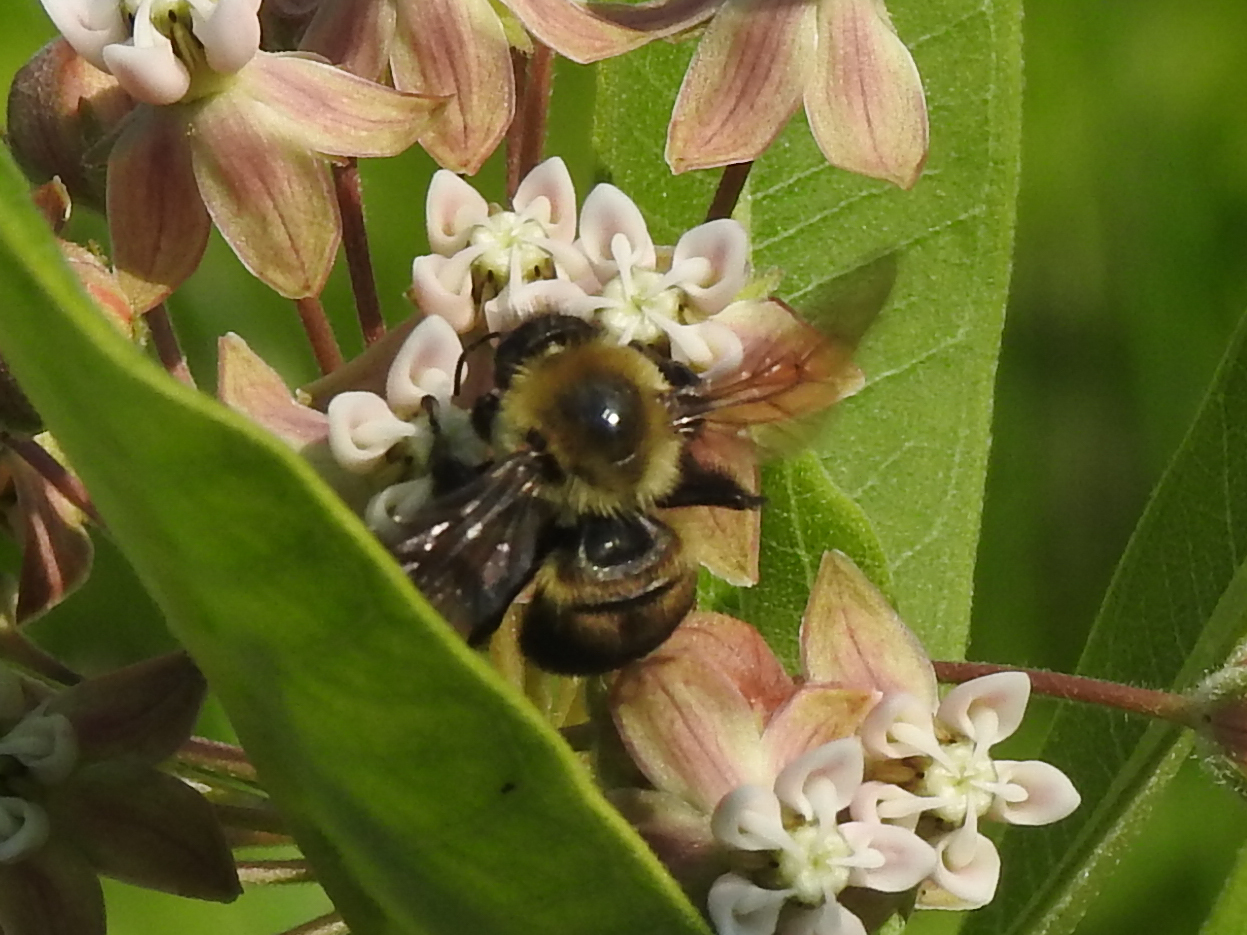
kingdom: Animalia
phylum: Arthropoda
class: Insecta
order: Hymenoptera
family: Apidae
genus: Bombus
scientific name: Bombus griseocollis
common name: Brown-belted bumble bee
